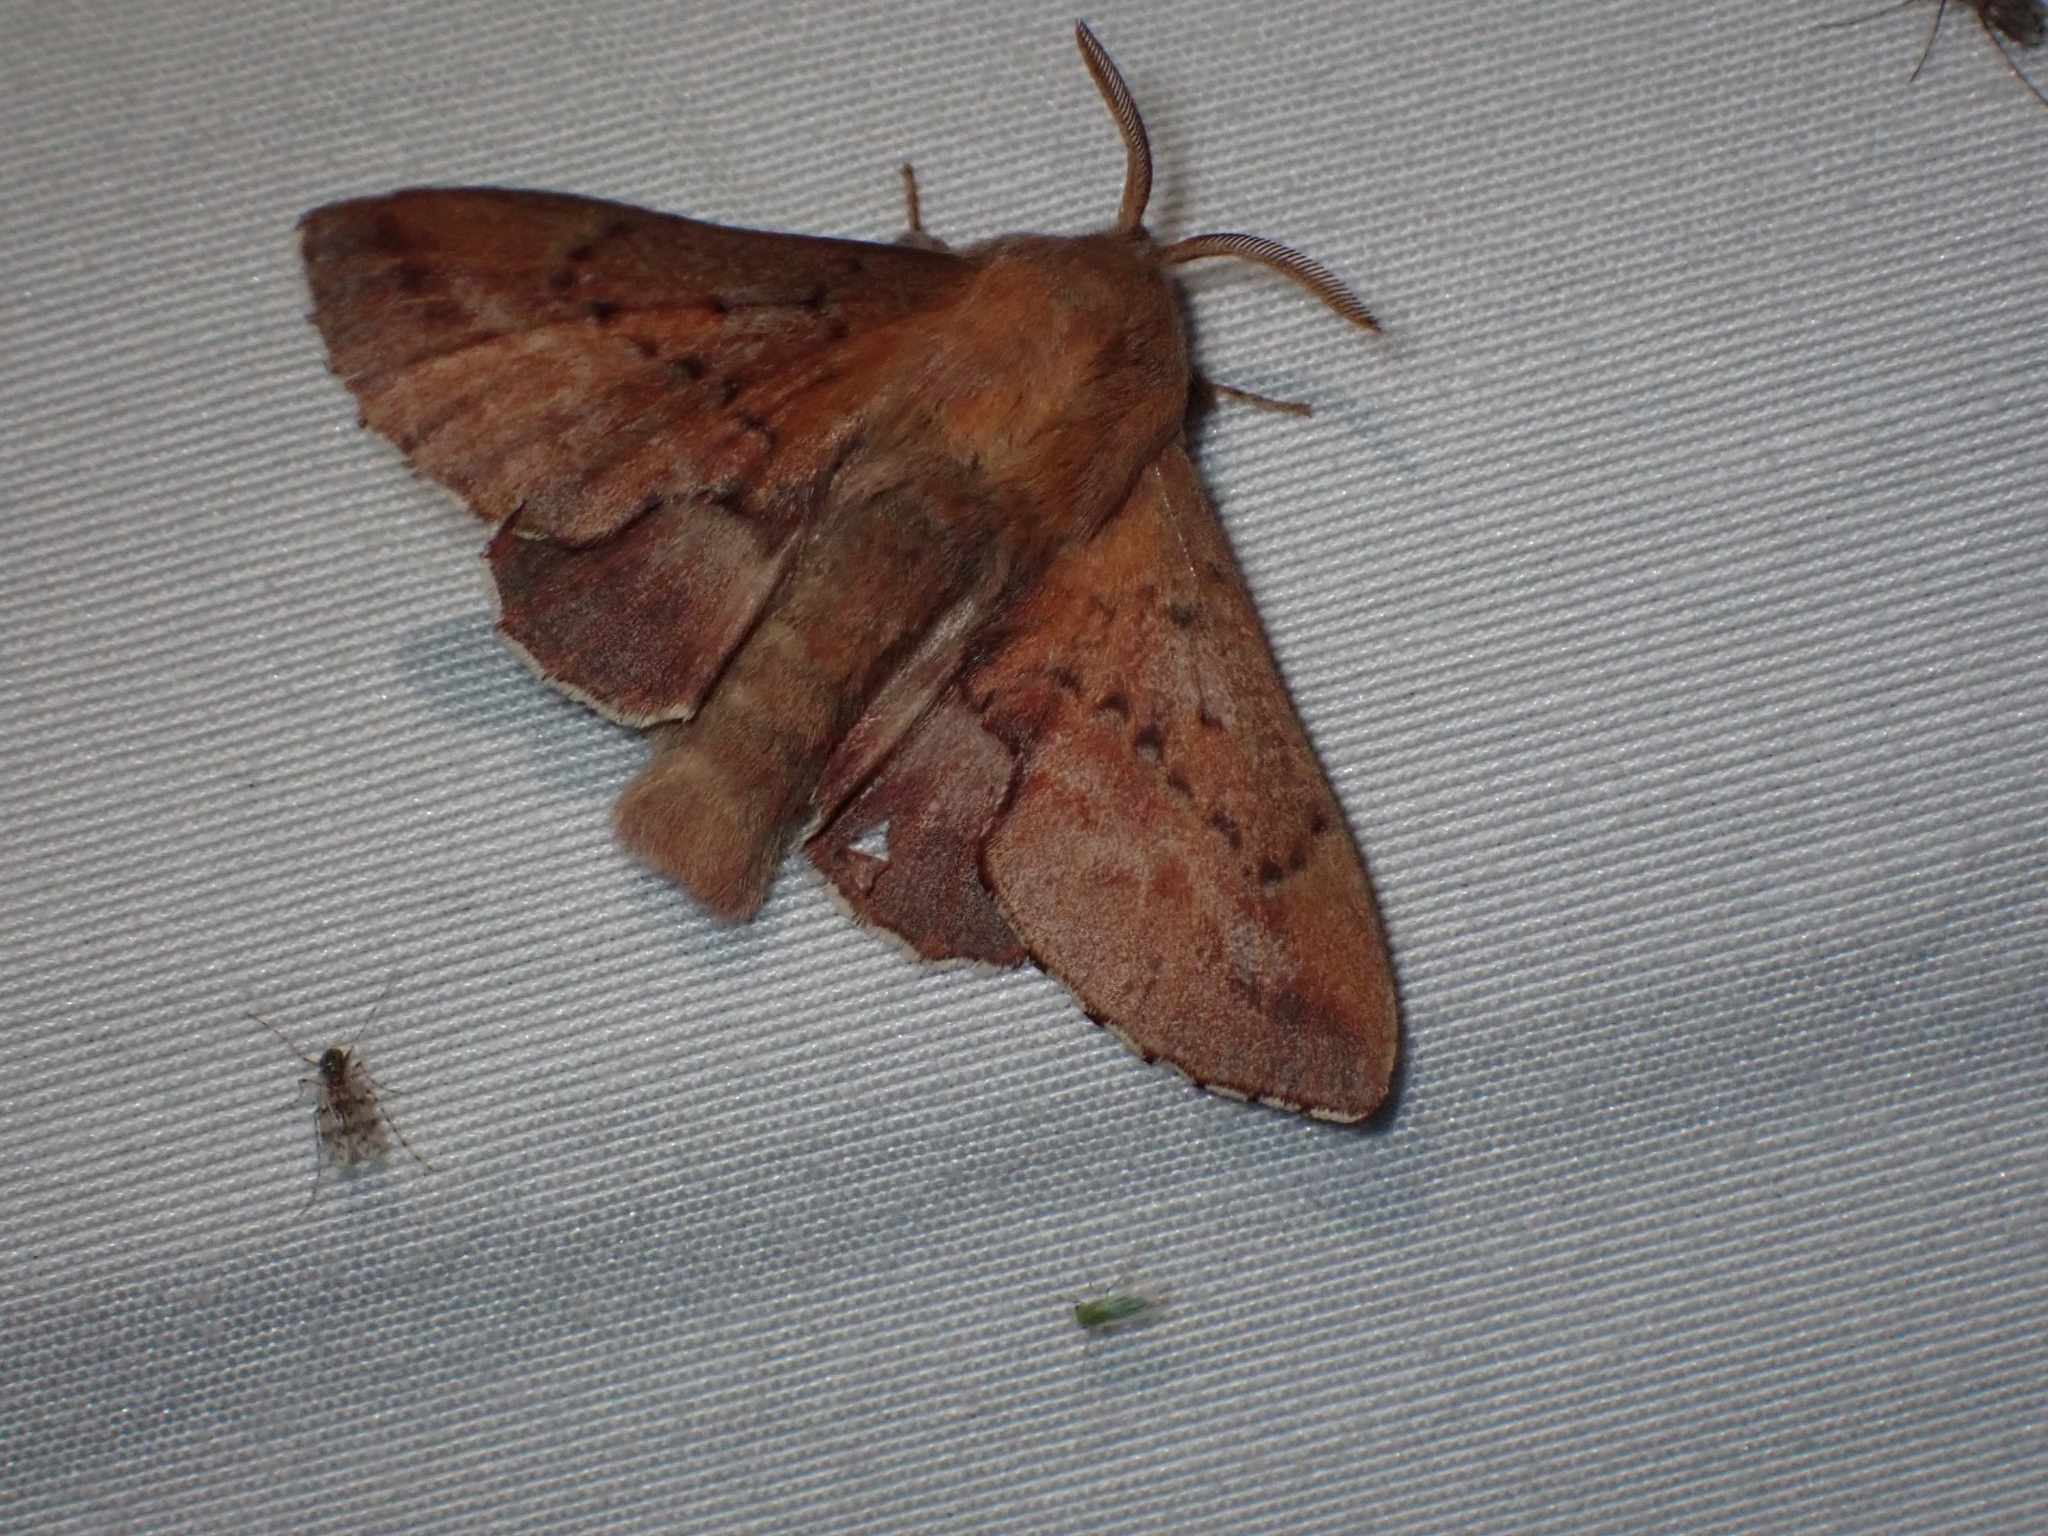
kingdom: Animalia
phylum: Arthropoda
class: Insecta
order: Lepidoptera
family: Lasiocampidae
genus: Phyllodesma
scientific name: Phyllodesma americana
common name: American lappet moth
